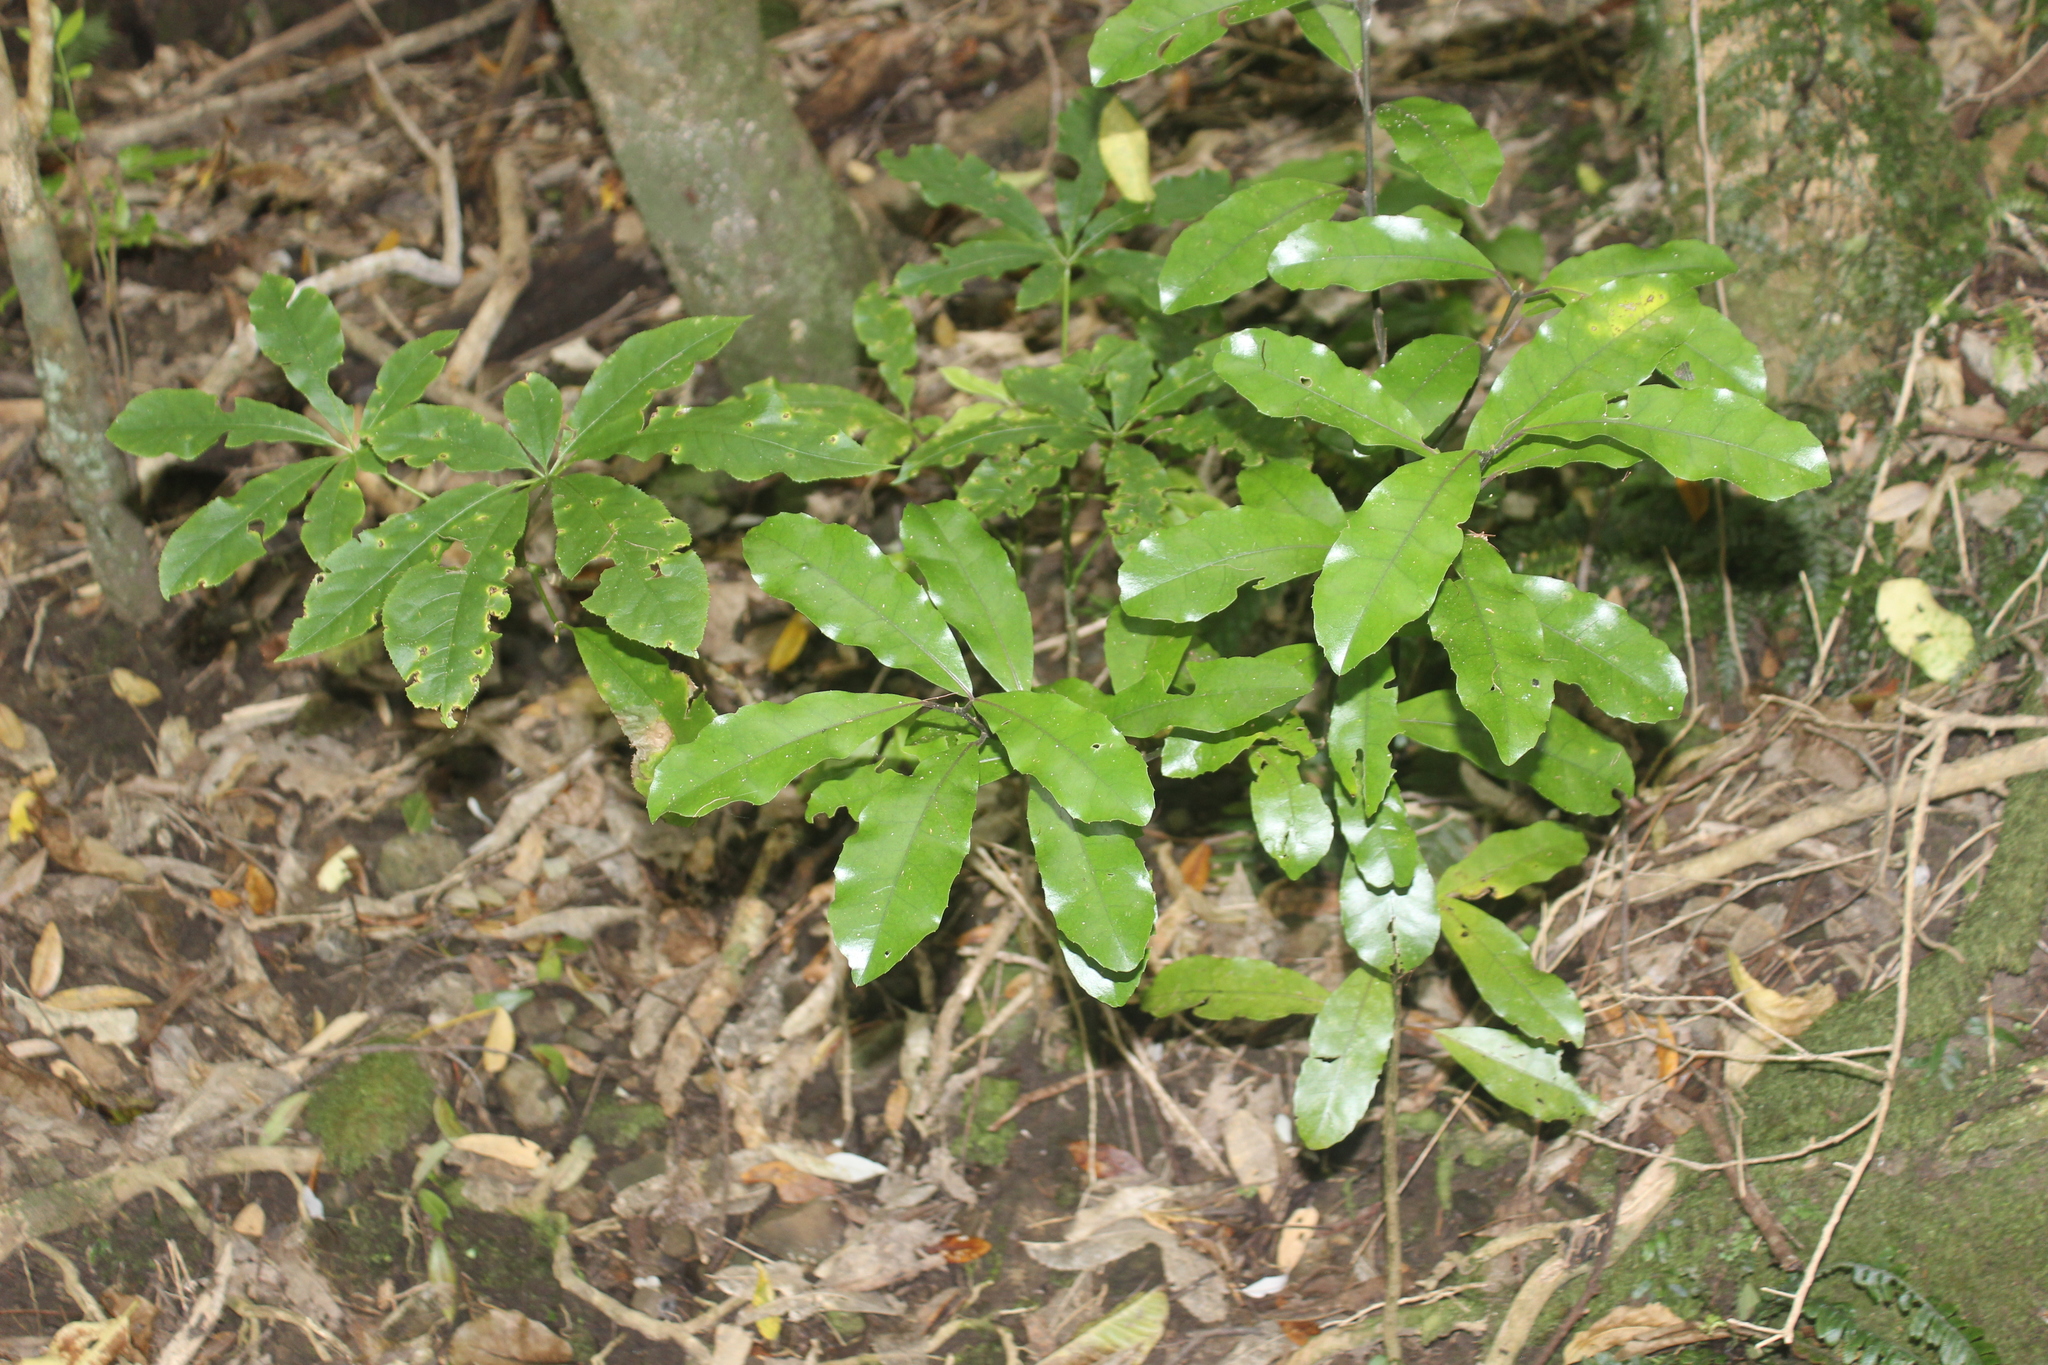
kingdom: Plantae
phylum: Tracheophyta
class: Magnoliopsida
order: Laurales
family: Monimiaceae
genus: Hedycarya
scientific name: Hedycarya arborea
